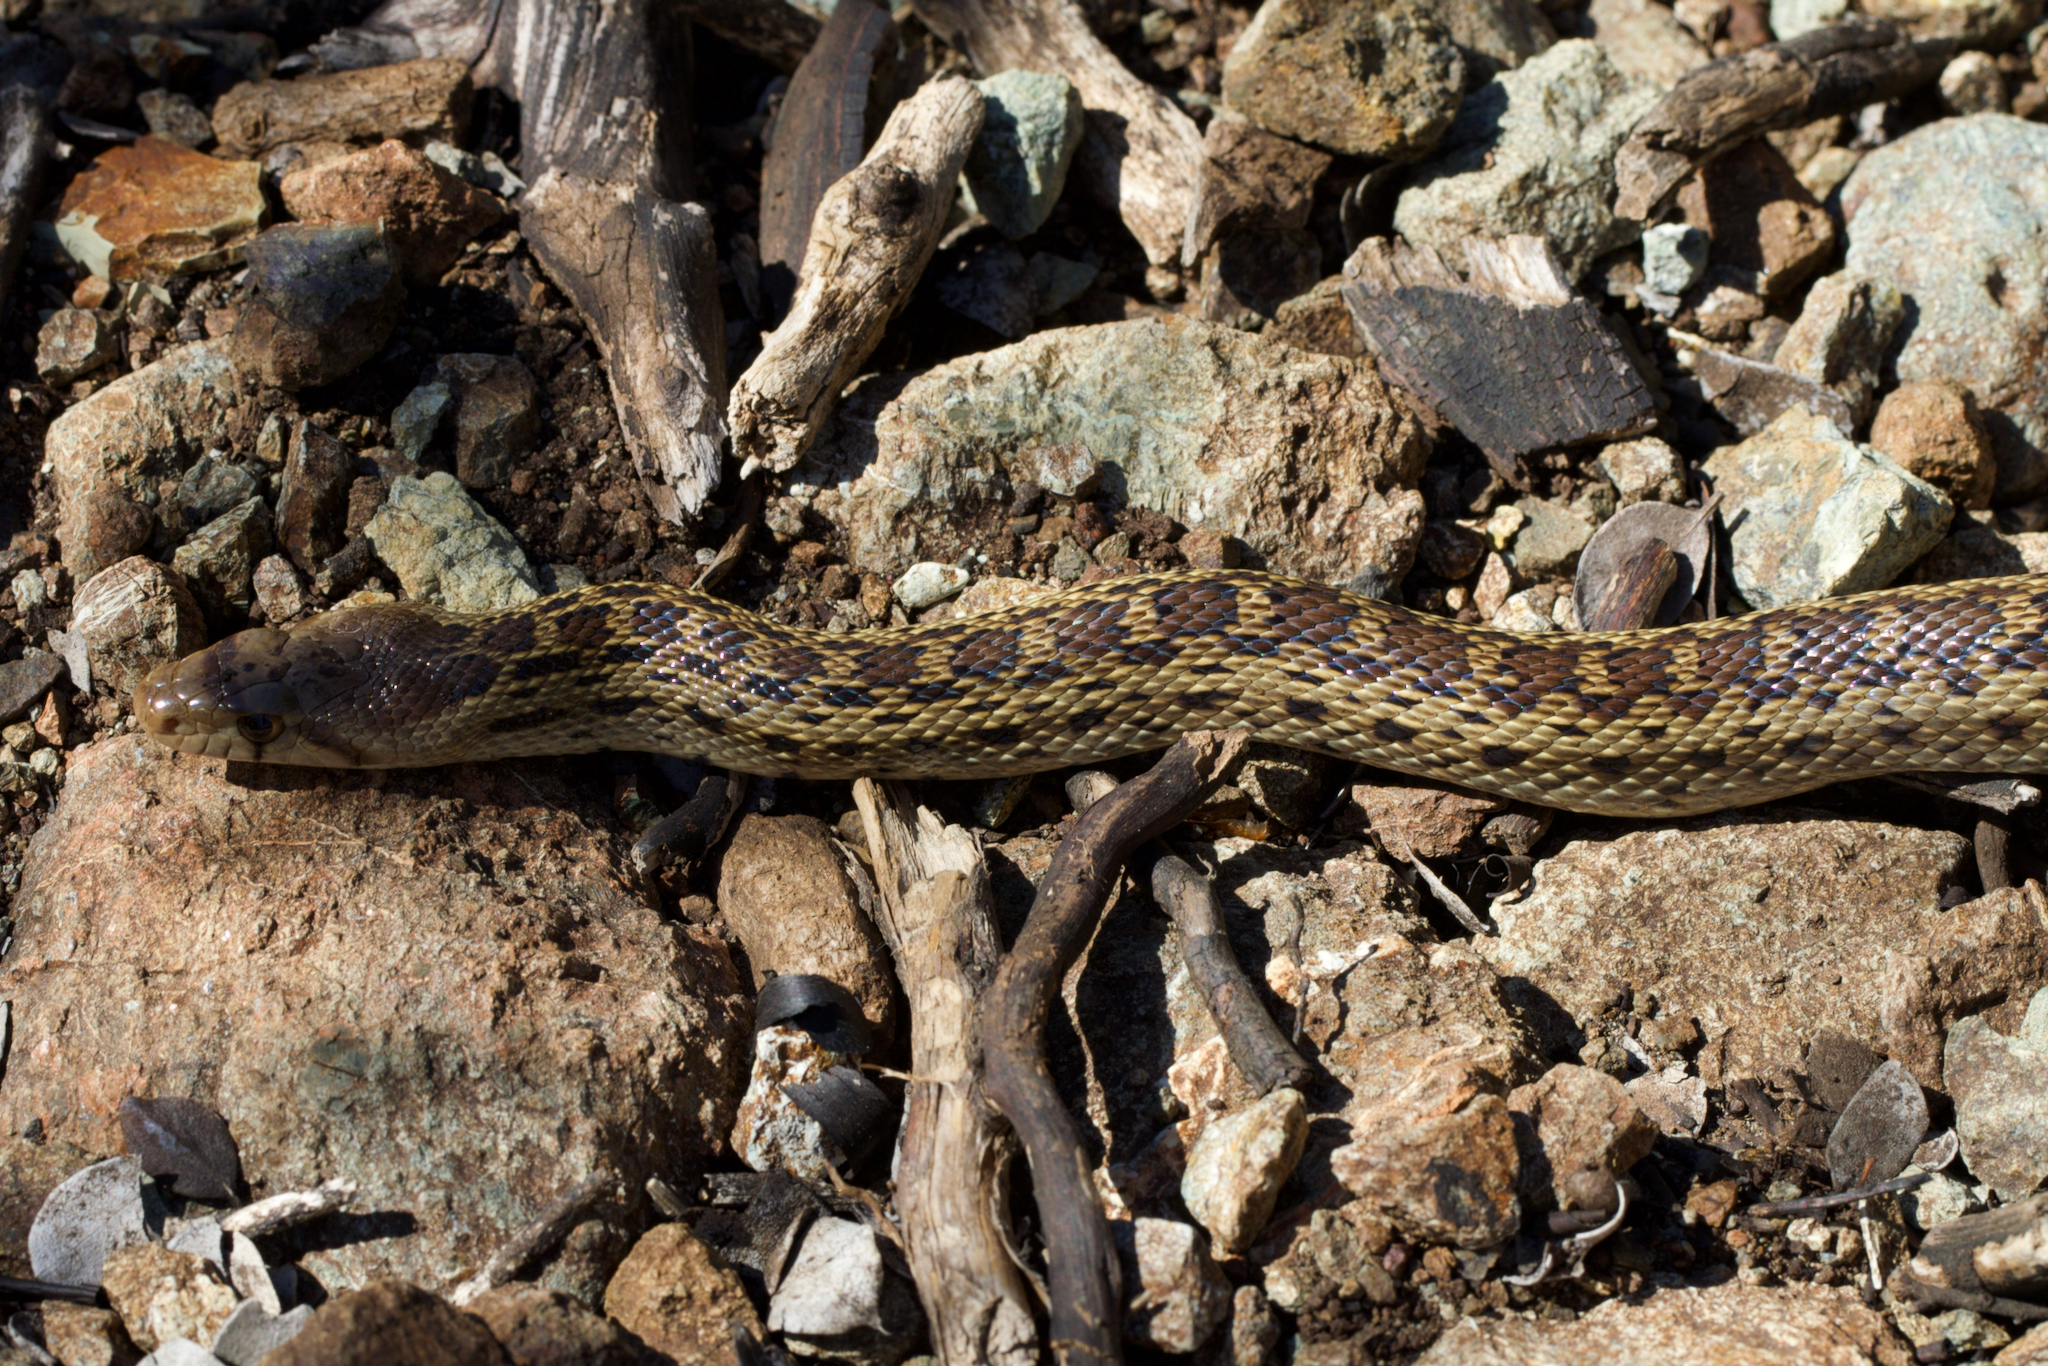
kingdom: Animalia
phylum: Chordata
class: Squamata
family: Colubridae
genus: Pituophis
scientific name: Pituophis catenifer
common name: Gopher snake
